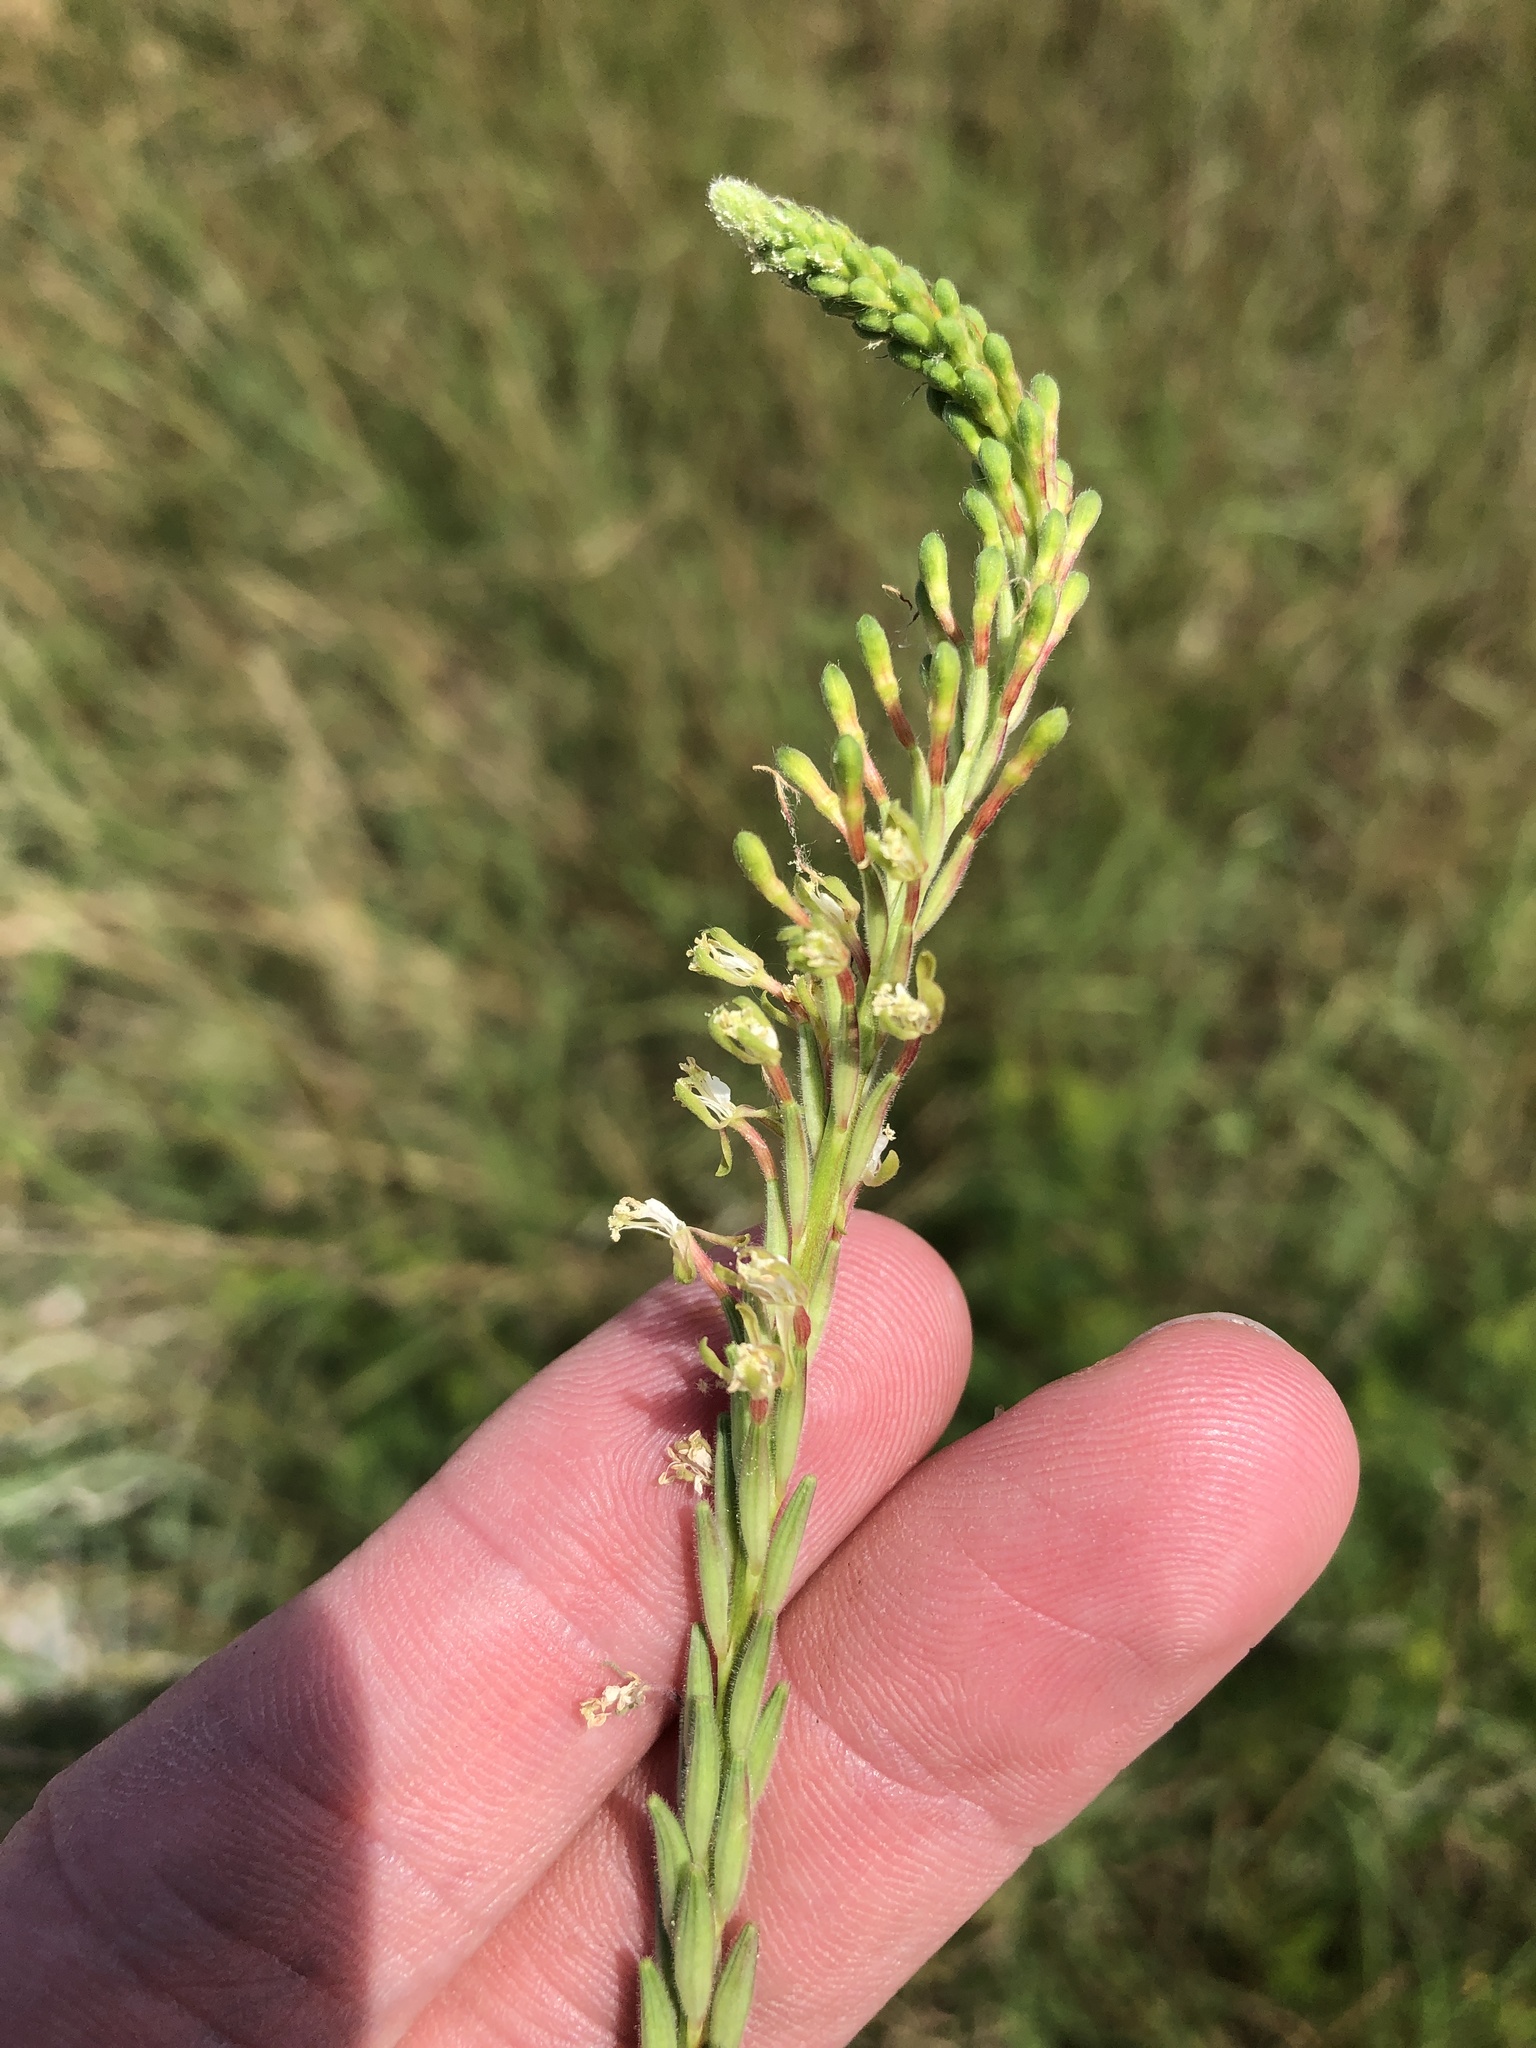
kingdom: Plantae
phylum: Tracheophyta
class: Magnoliopsida
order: Myrtales
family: Onagraceae
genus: Oenothera
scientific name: Oenothera curtiflora
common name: Velvetweed
